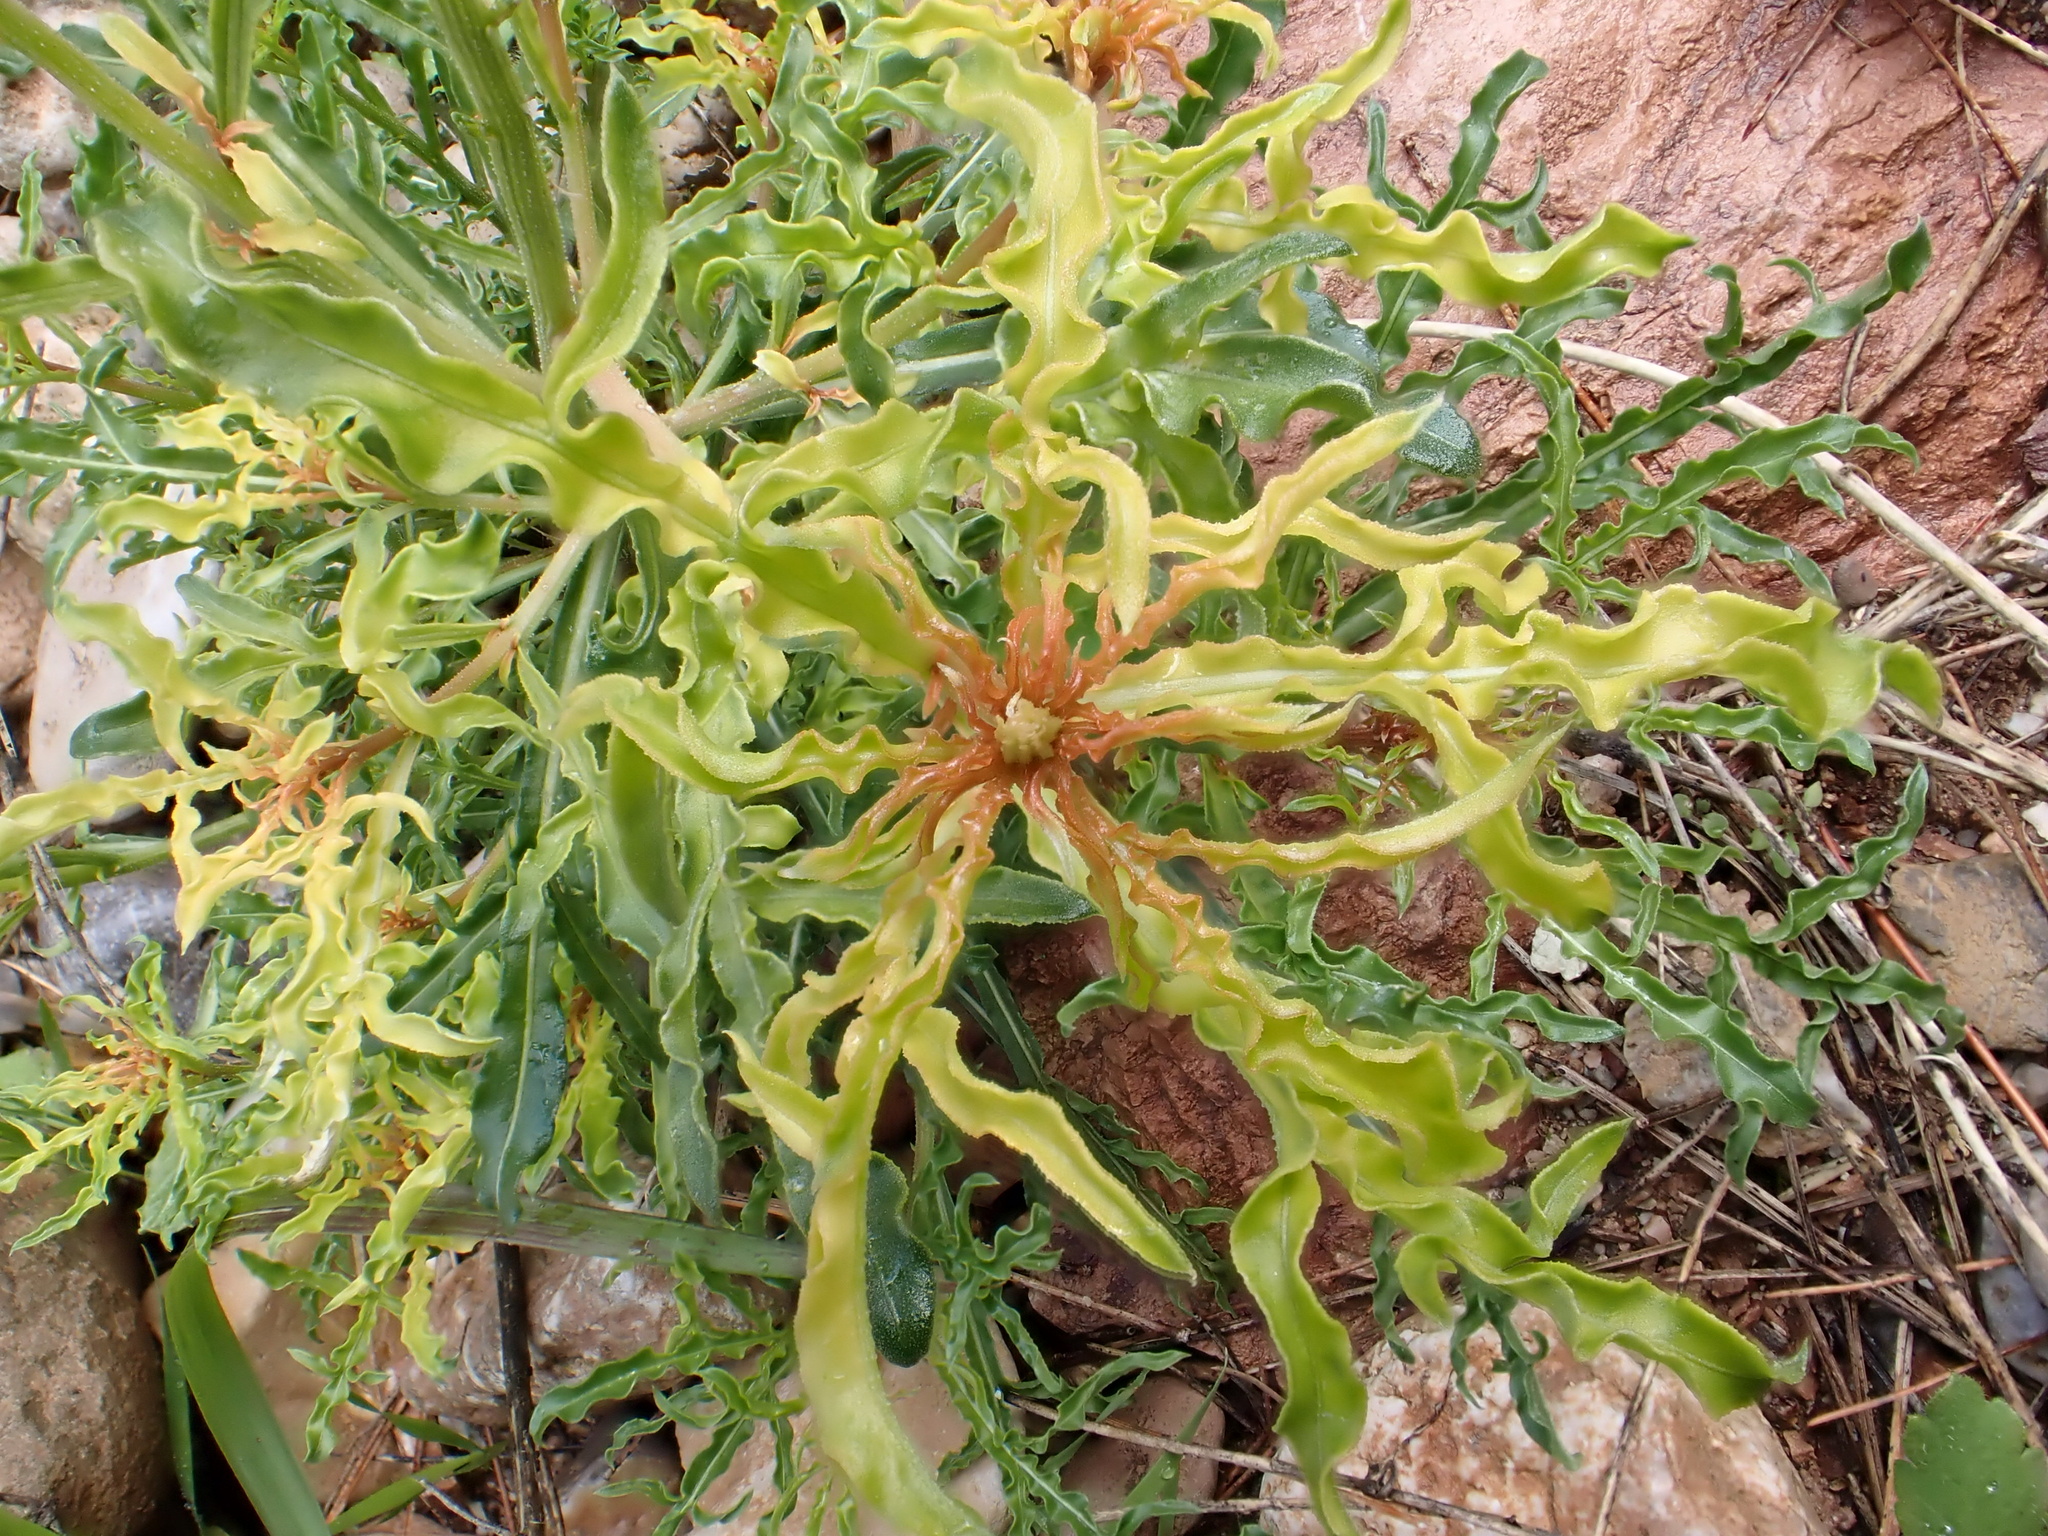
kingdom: Plantae
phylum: Tracheophyta
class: Magnoliopsida
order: Brassicales
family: Resedaceae
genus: Reseda
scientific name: Reseda lutea
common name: Wild mignonette
